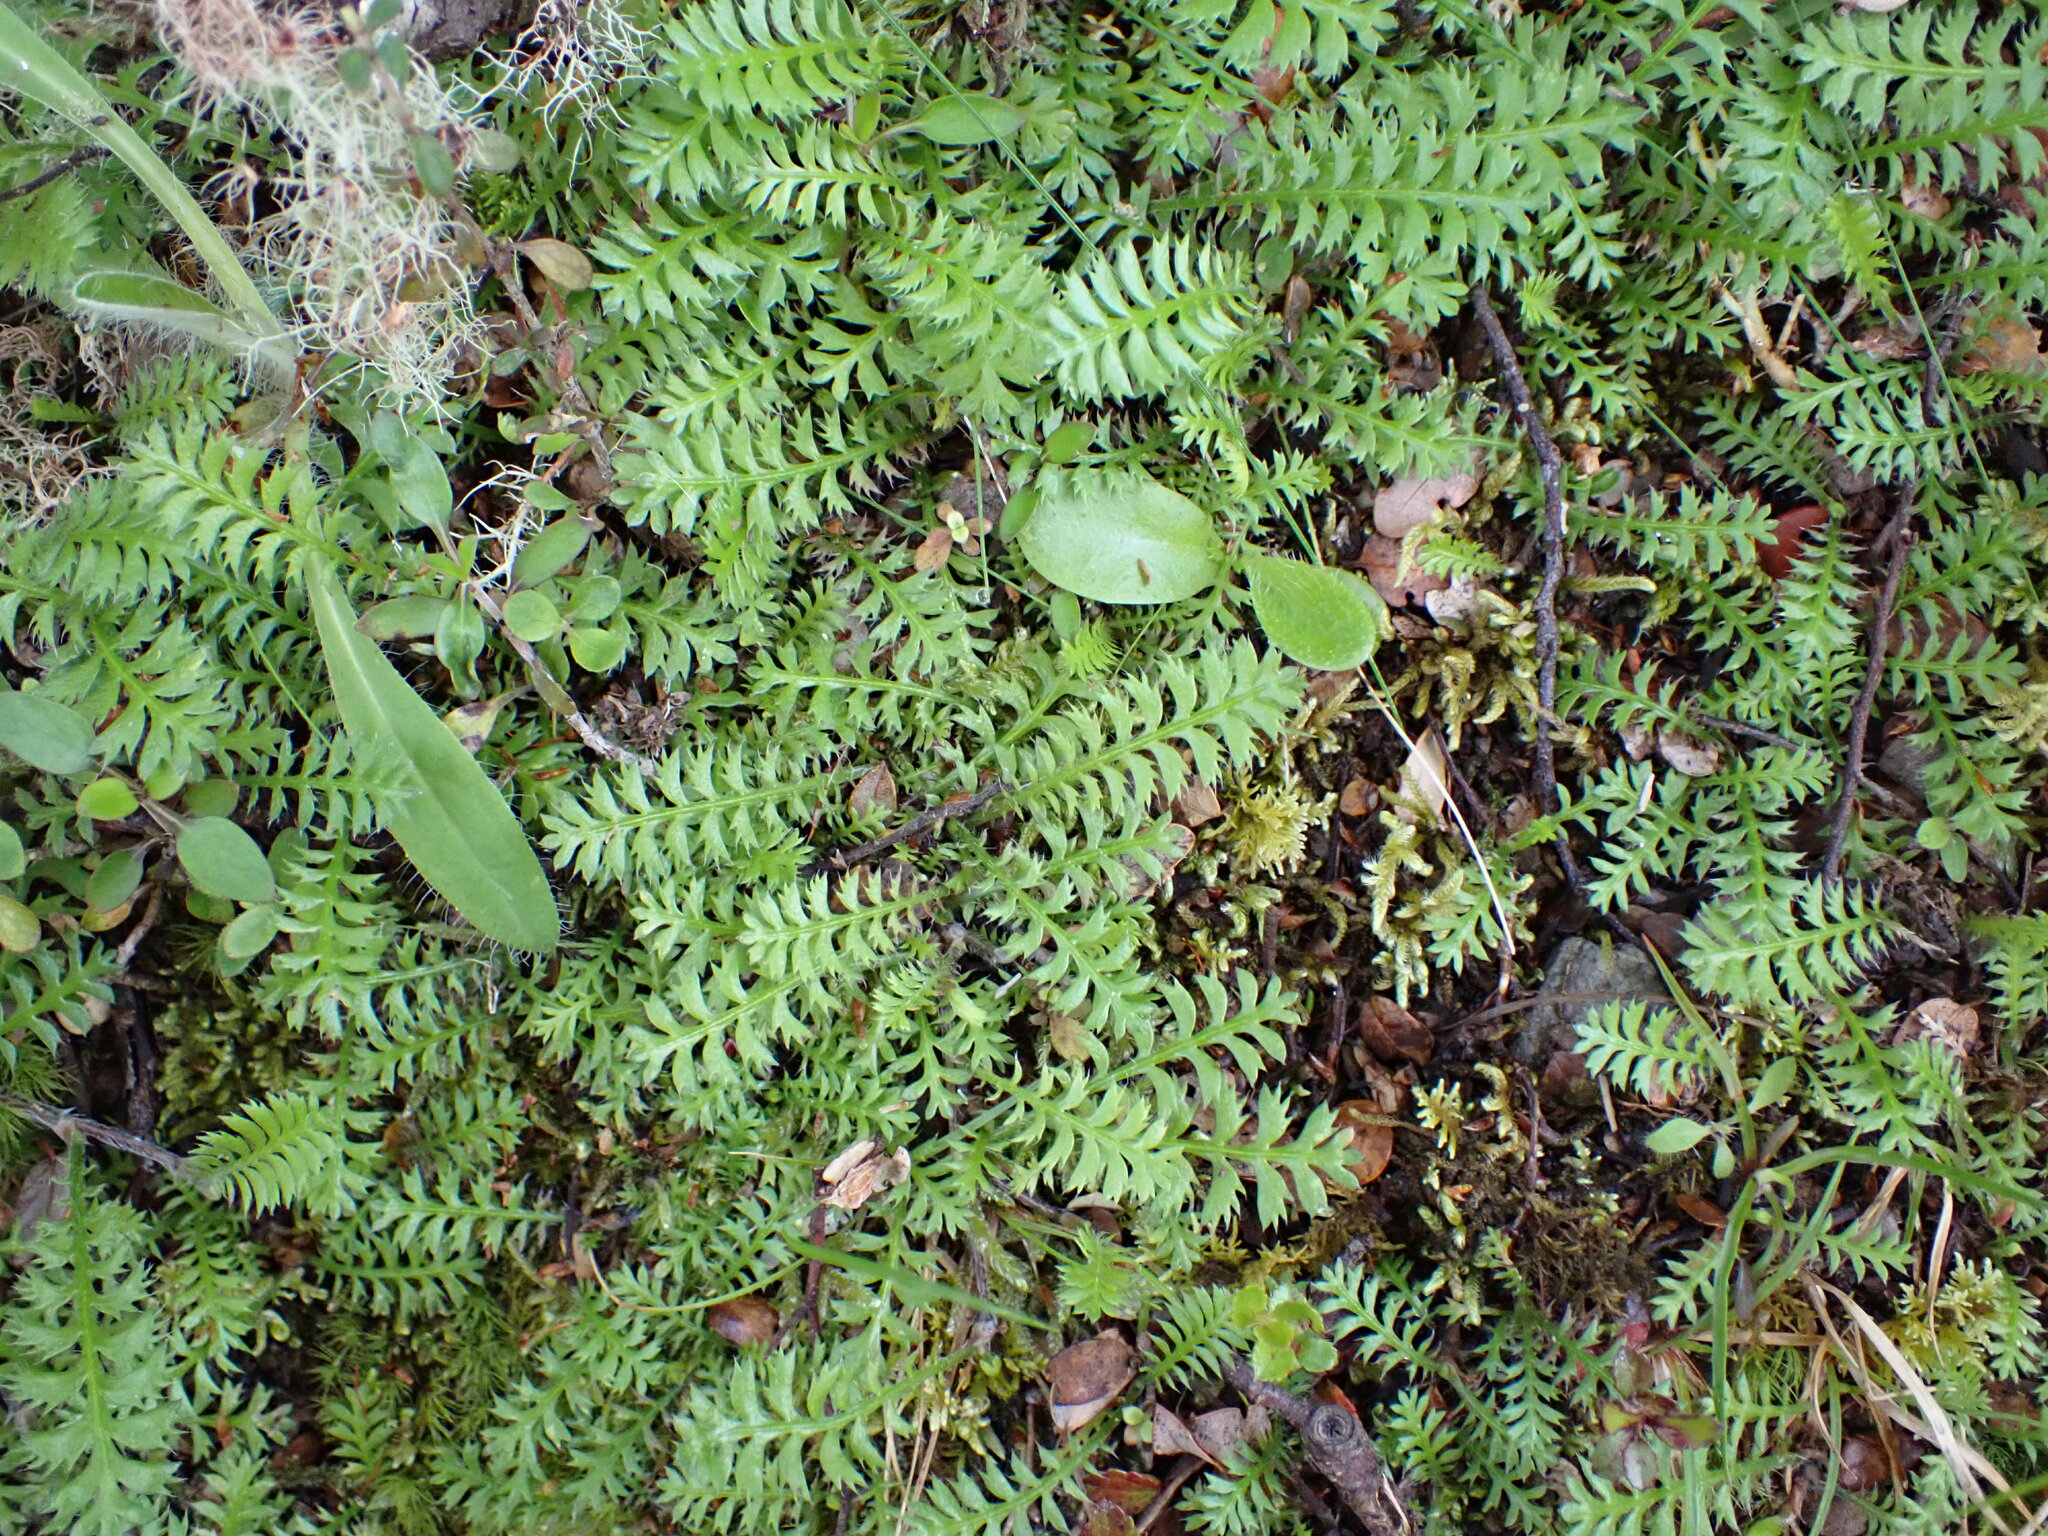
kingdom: Plantae
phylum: Tracheophyta
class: Magnoliopsida
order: Asterales
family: Asteraceae
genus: Leptinella
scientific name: Leptinella squalida
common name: New zealand brass-buttons
